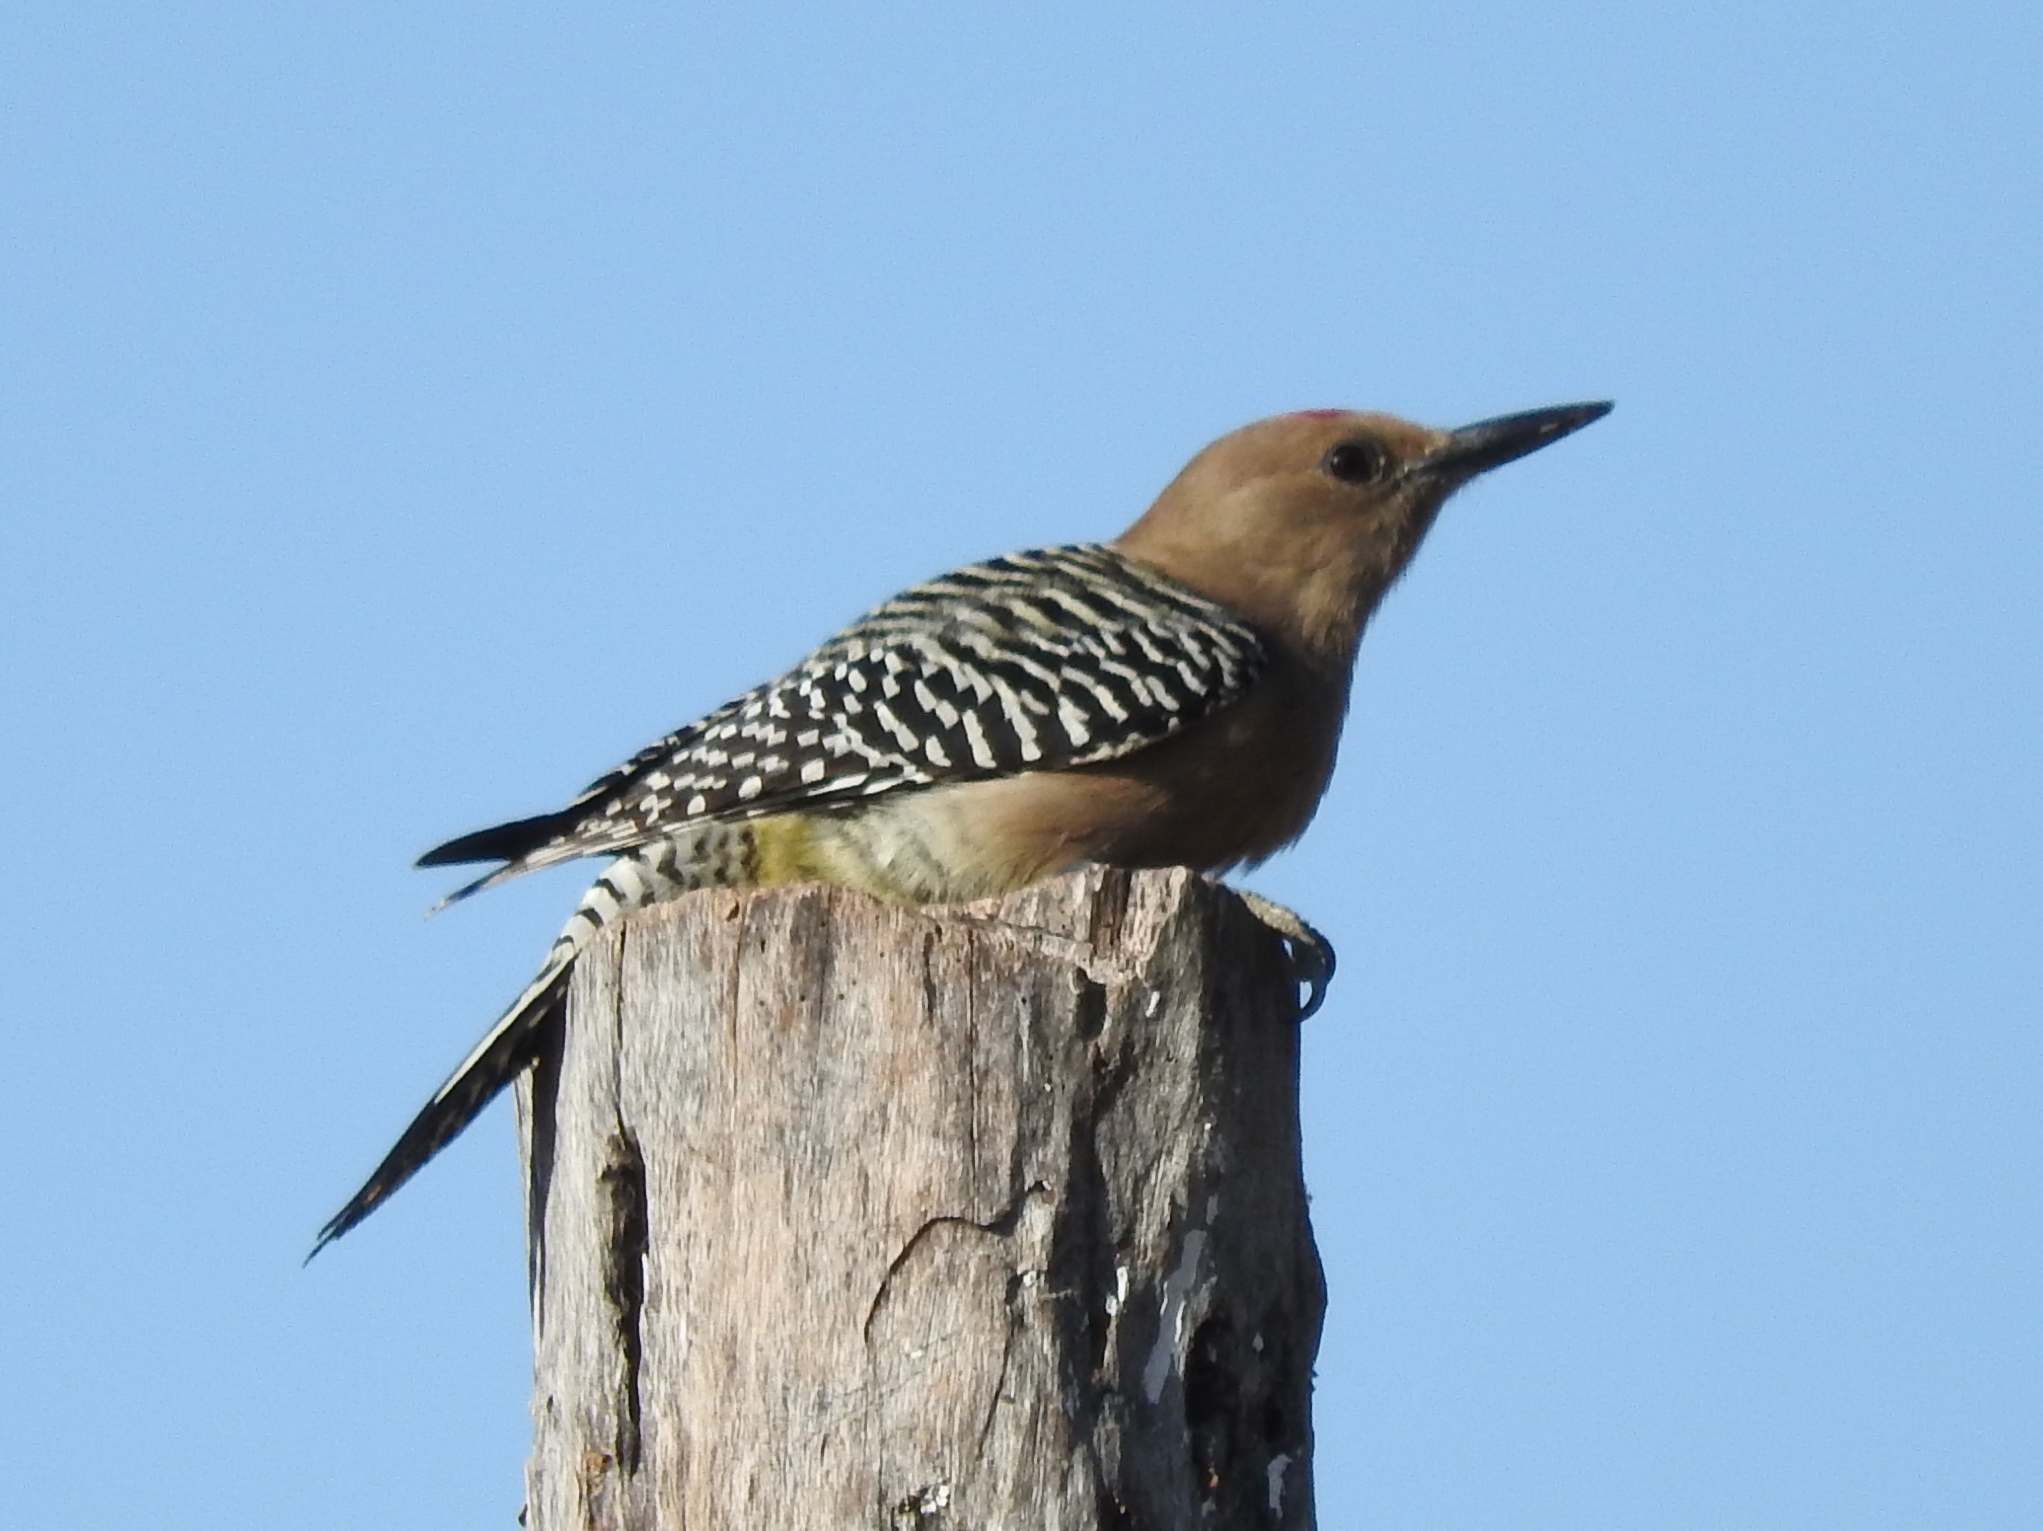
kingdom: Animalia
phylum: Chordata
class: Aves
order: Piciformes
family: Picidae
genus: Melanerpes
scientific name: Melanerpes uropygialis
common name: Gila woodpecker
